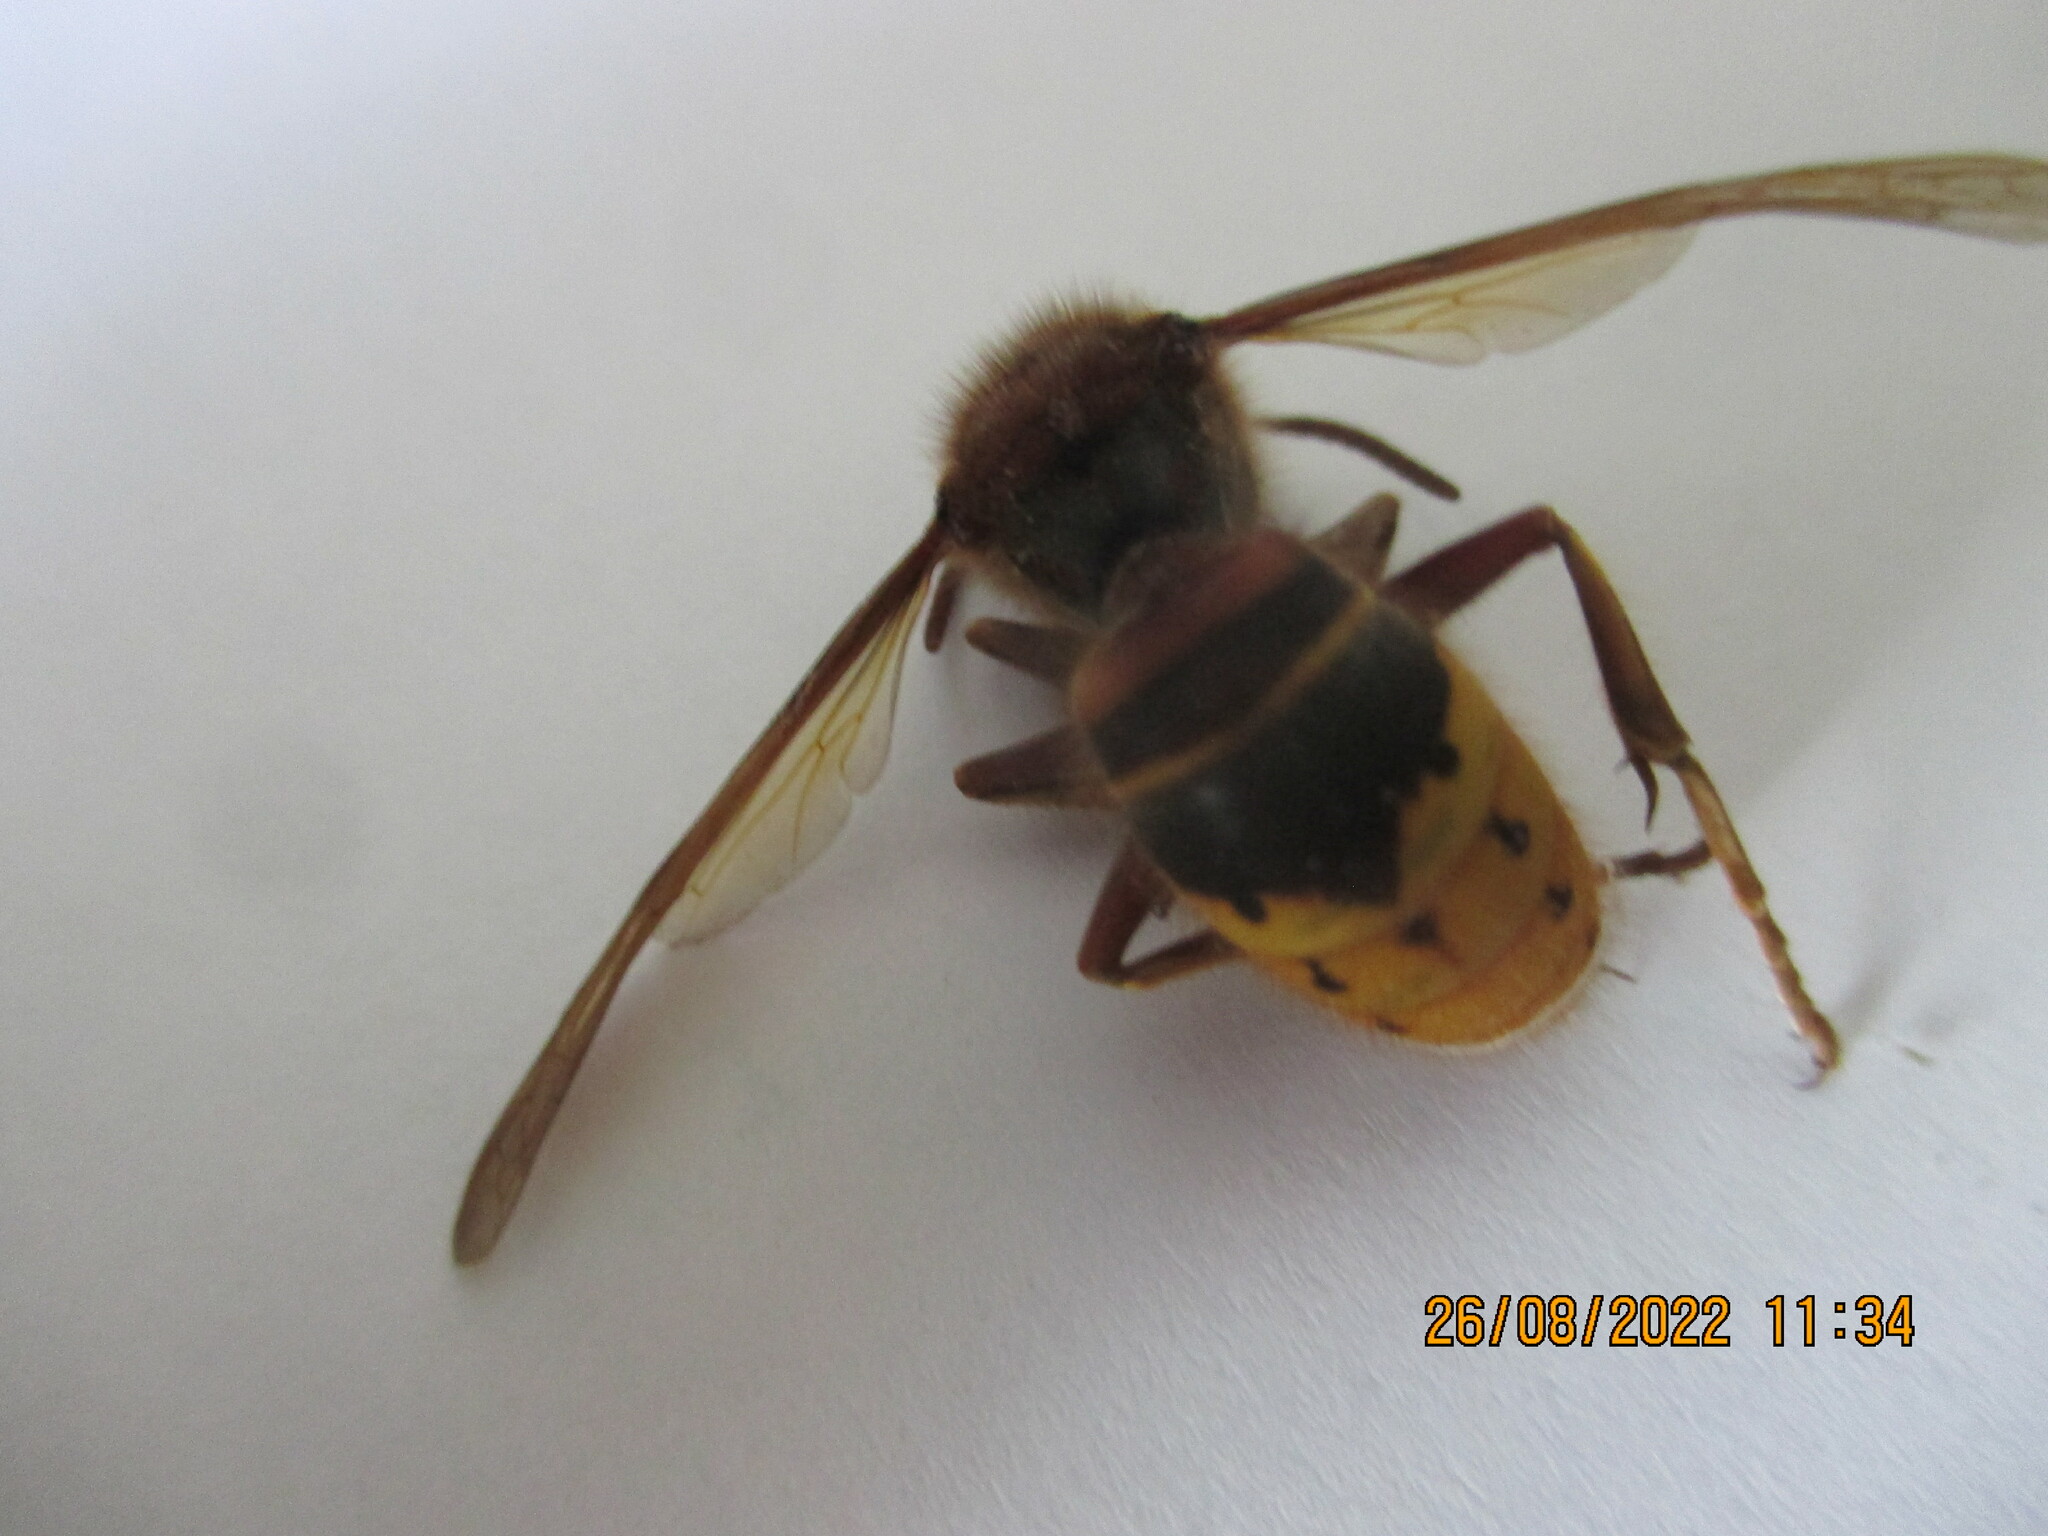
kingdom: Animalia
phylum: Arthropoda
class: Insecta
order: Hymenoptera
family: Vespidae
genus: Vespa
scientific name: Vespa crabro
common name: Hornet
